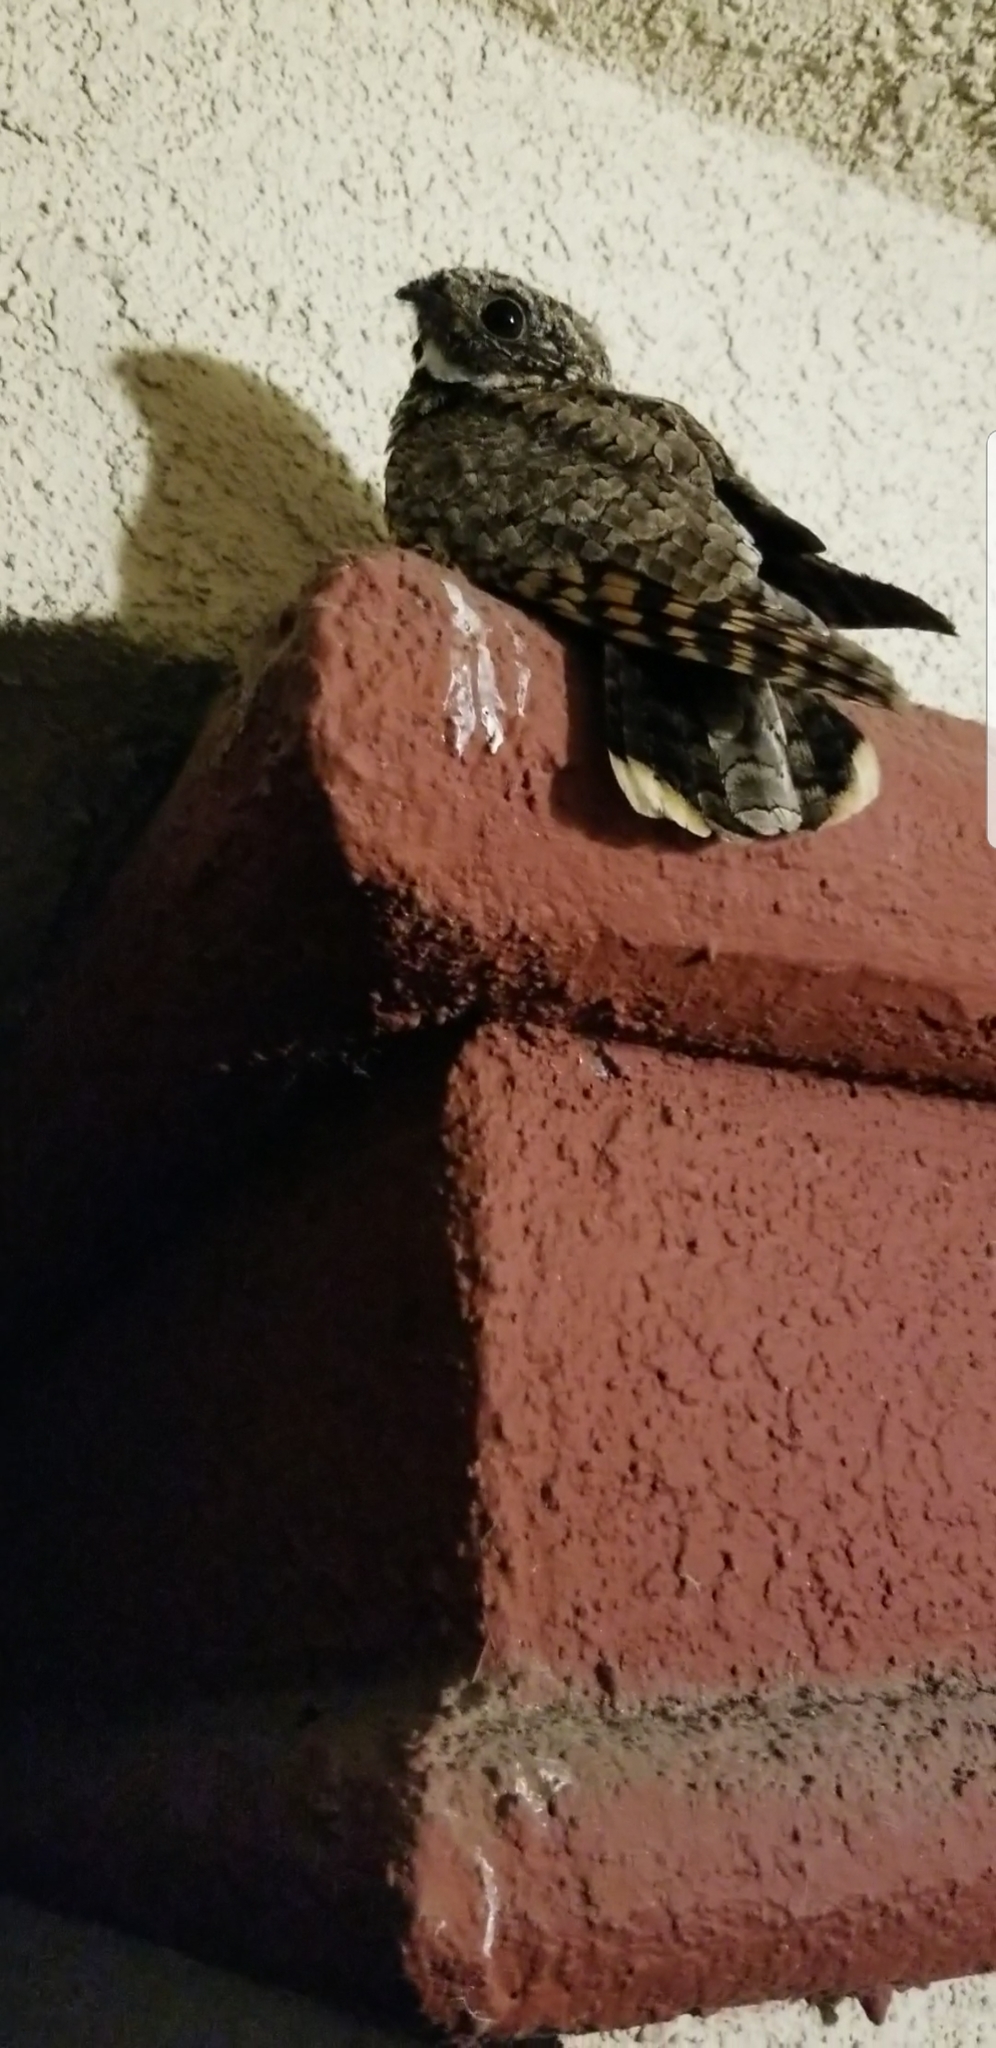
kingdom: Animalia
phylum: Chordata
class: Aves
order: Caprimulgiformes
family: Caprimulgidae
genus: Phalaenoptilus
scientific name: Phalaenoptilus nuttallii
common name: Common poorwill
